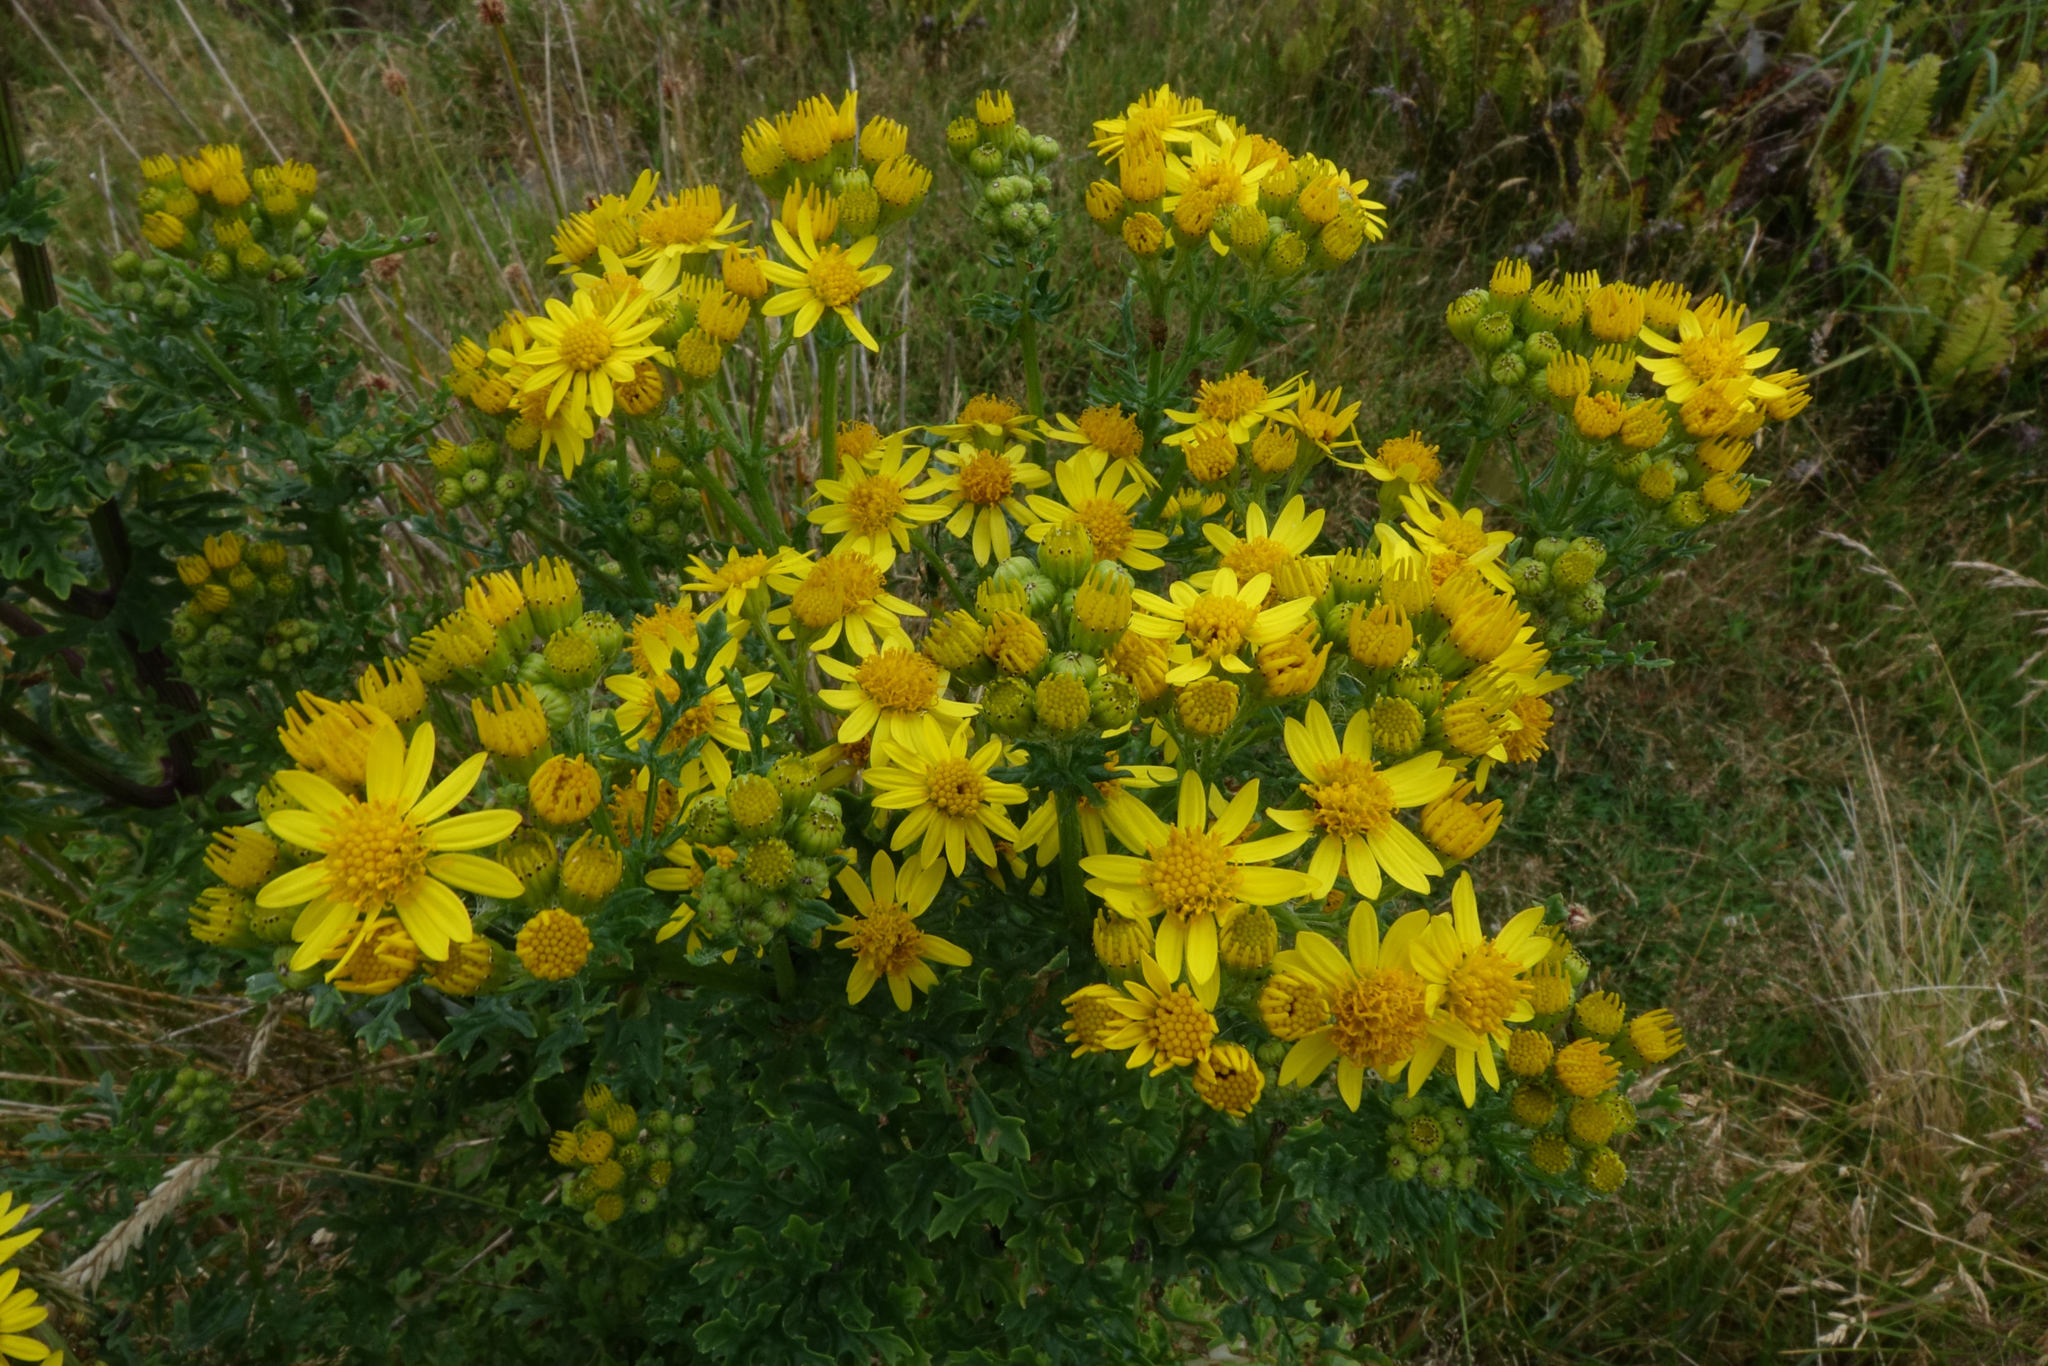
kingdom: Plantae
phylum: Tracheophyta
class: Magnoliopsida
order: Asterales
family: Asteraceae
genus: Jacobaea
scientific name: Jacobaea vulgaris
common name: Stinking willie
